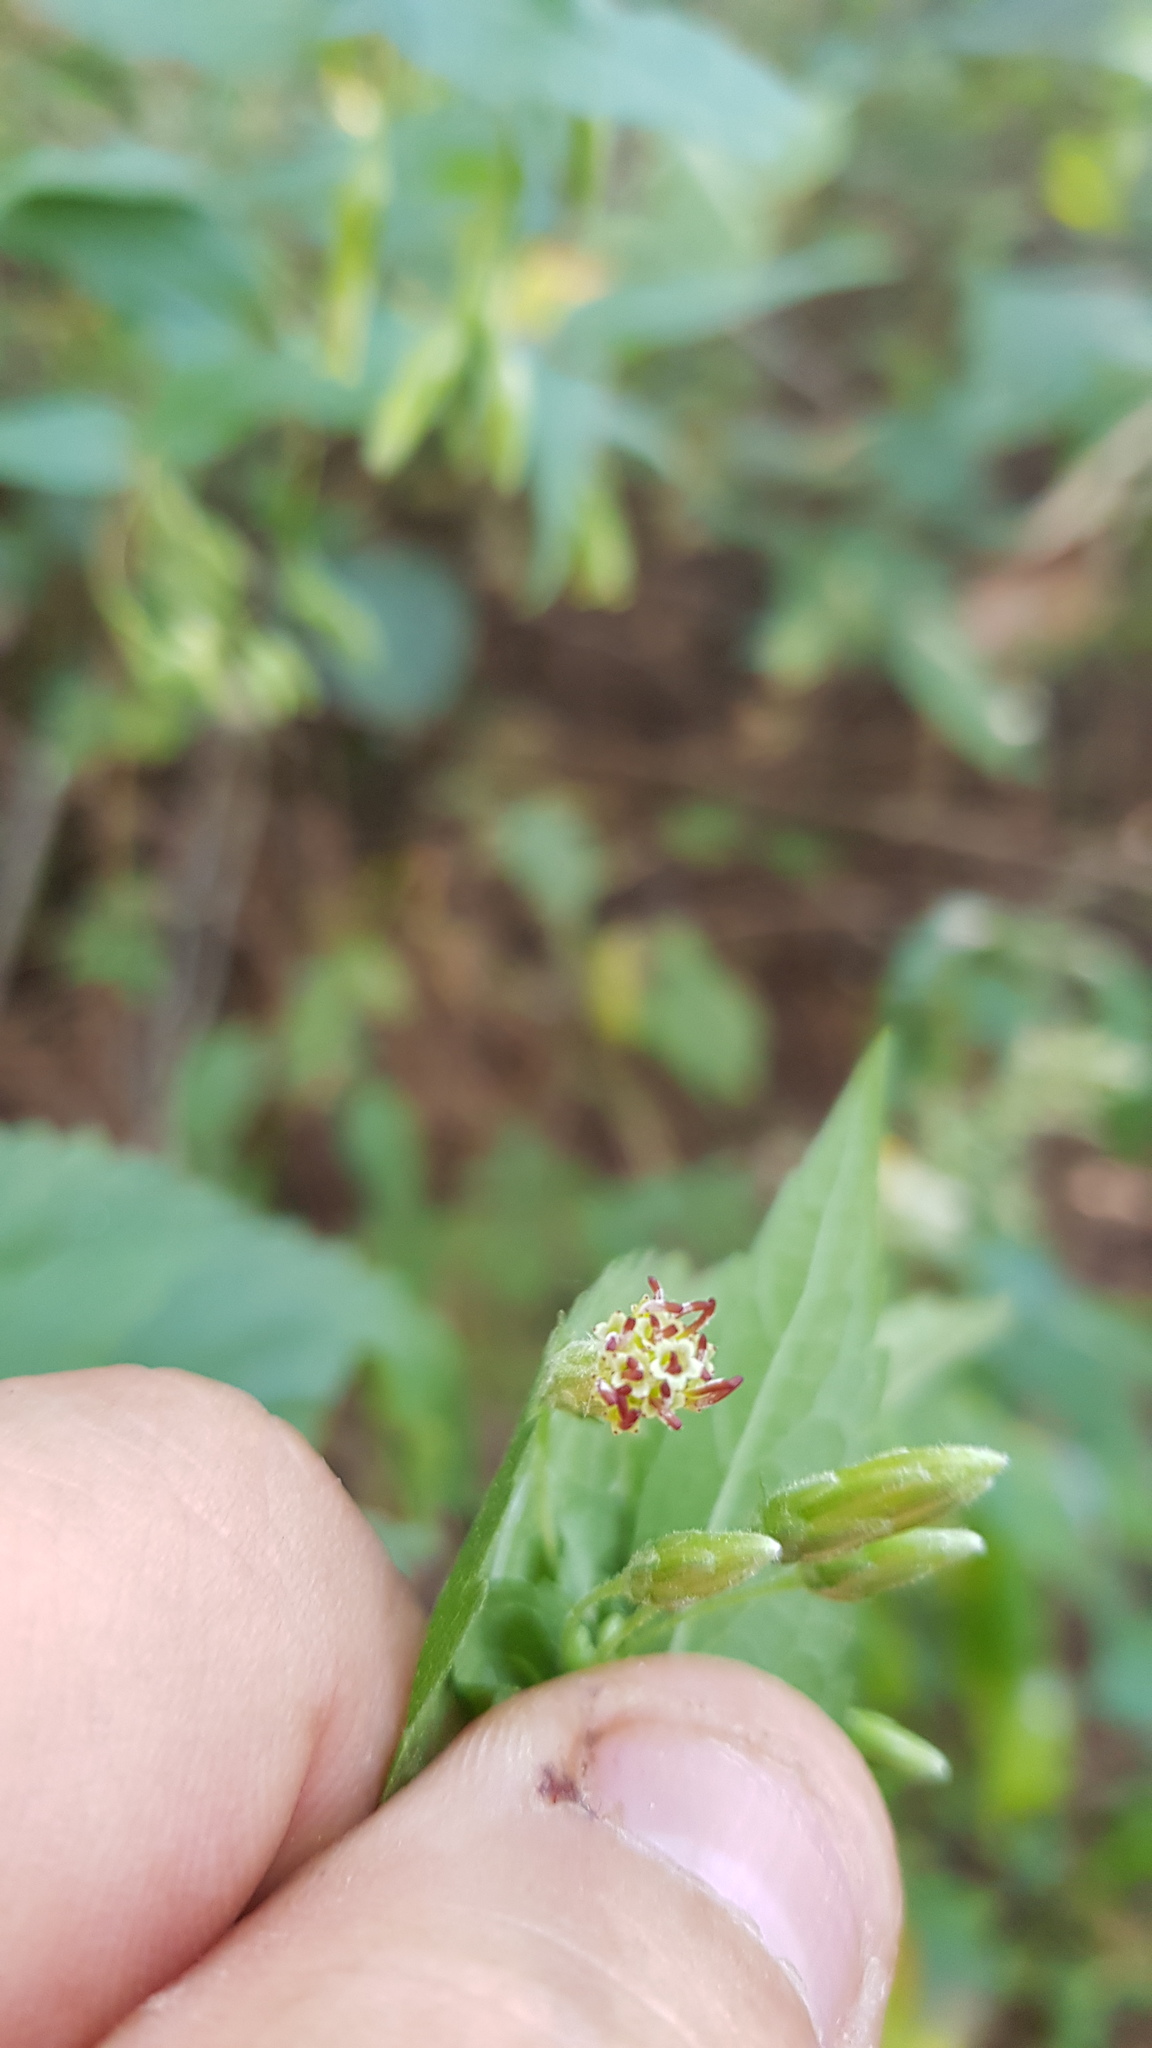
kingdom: Plantae
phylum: Tracheophyta
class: Magnoliopsida
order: Asterales
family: Asteraceae
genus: Brickellia
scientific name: Brickellia pendula
